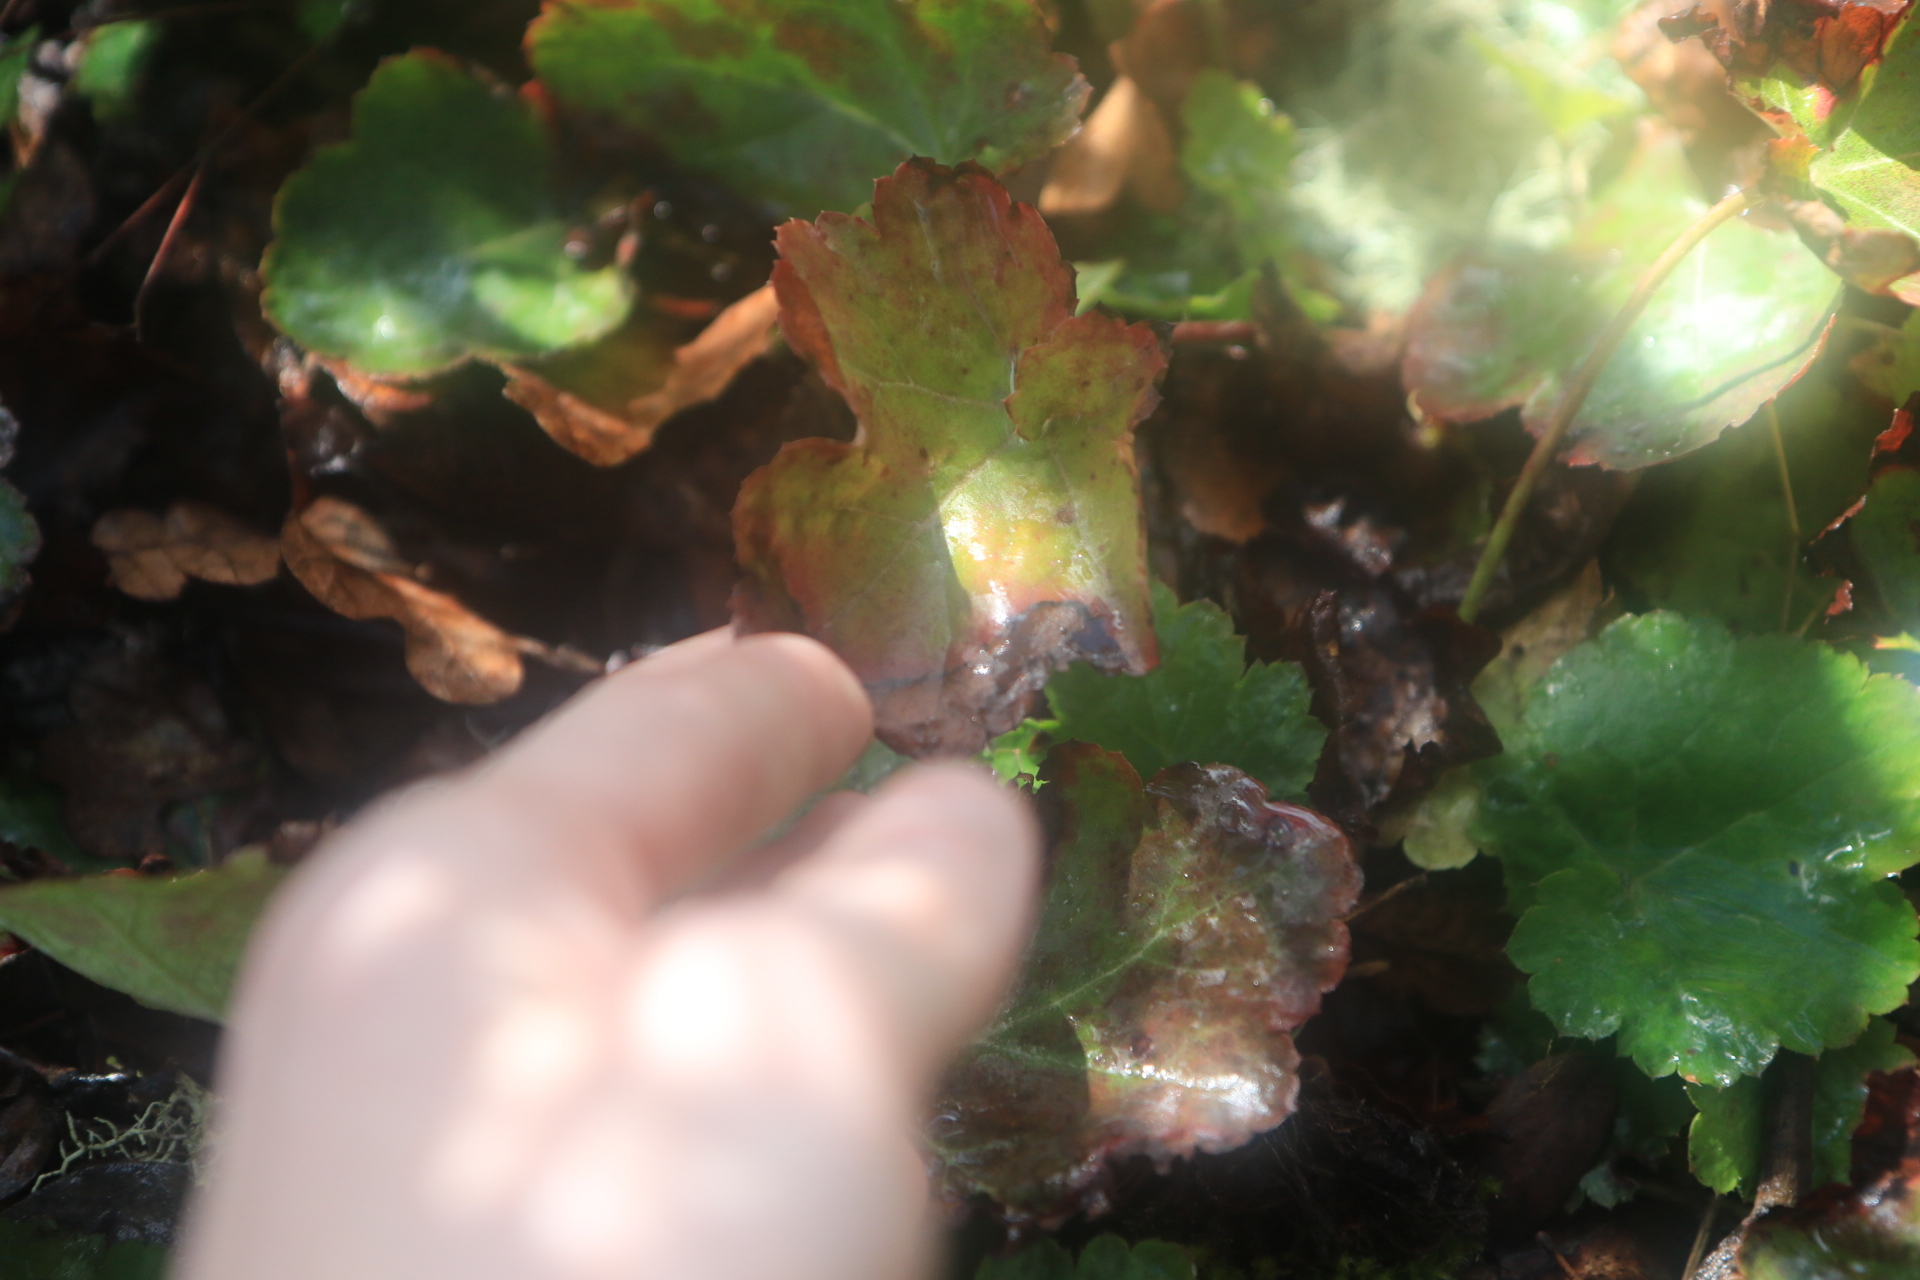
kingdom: Plantae
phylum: Tracheophyta
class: Magnoliopsida
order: Saxifragales
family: Saxifragaceae
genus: Heuchera
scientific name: Heuchera micrantha
